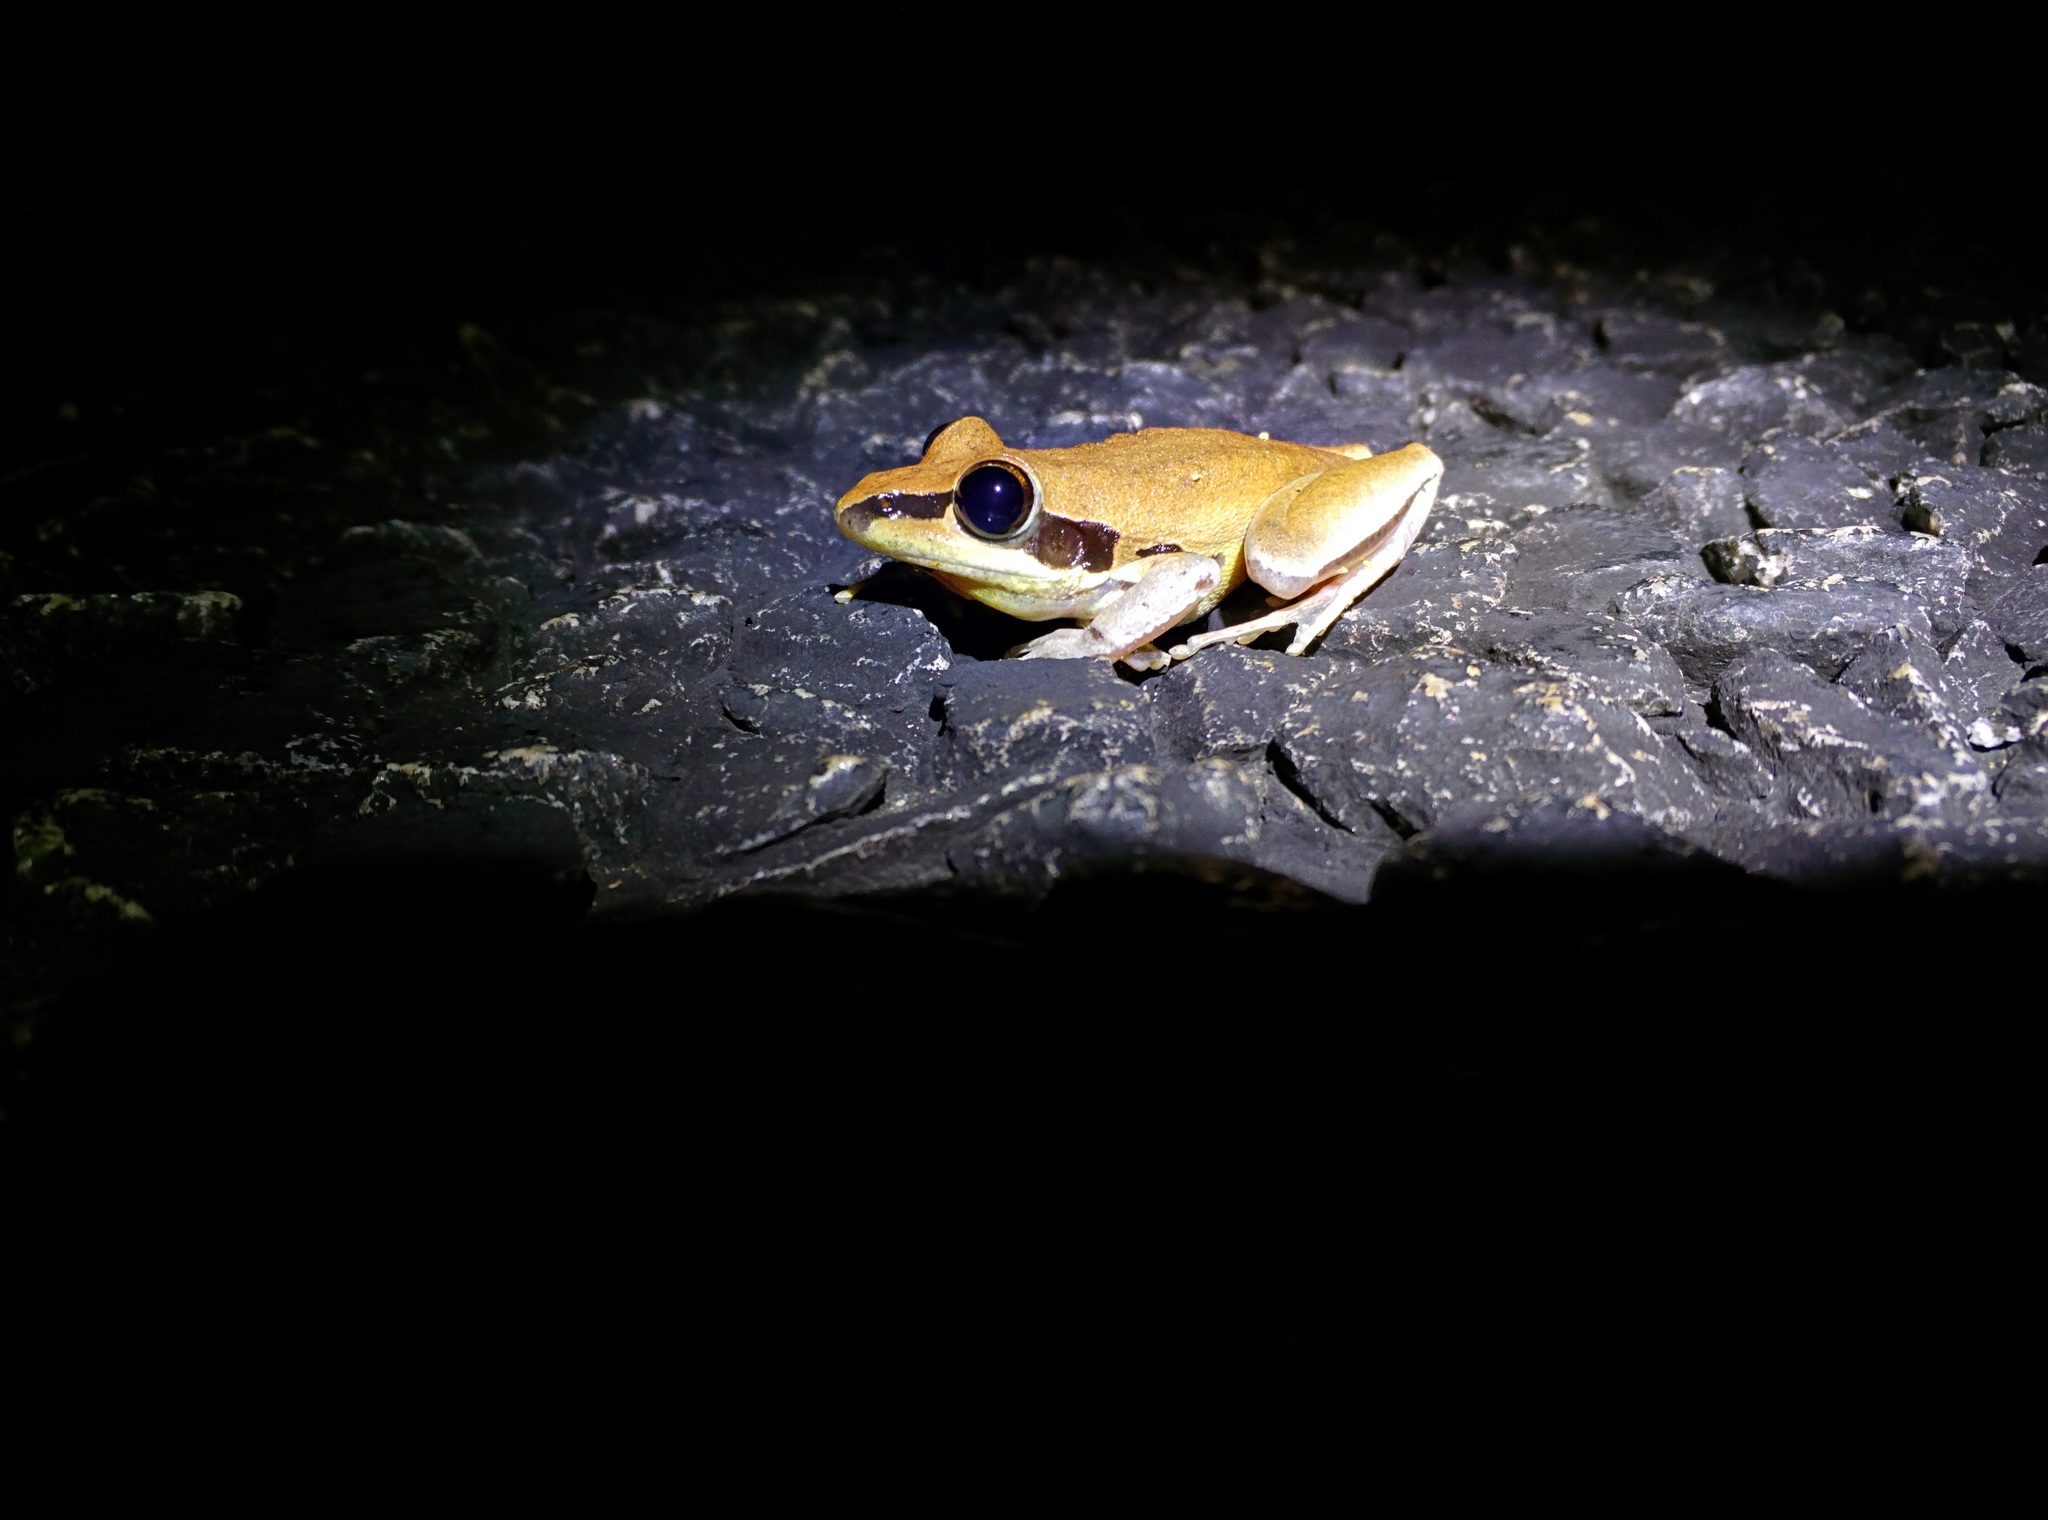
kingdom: Animalia
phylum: Chordata
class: Amphibia
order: Anura
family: Pelodryadidae
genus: Litoria
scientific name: Litoria nigrofrenata
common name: Bridle frog
